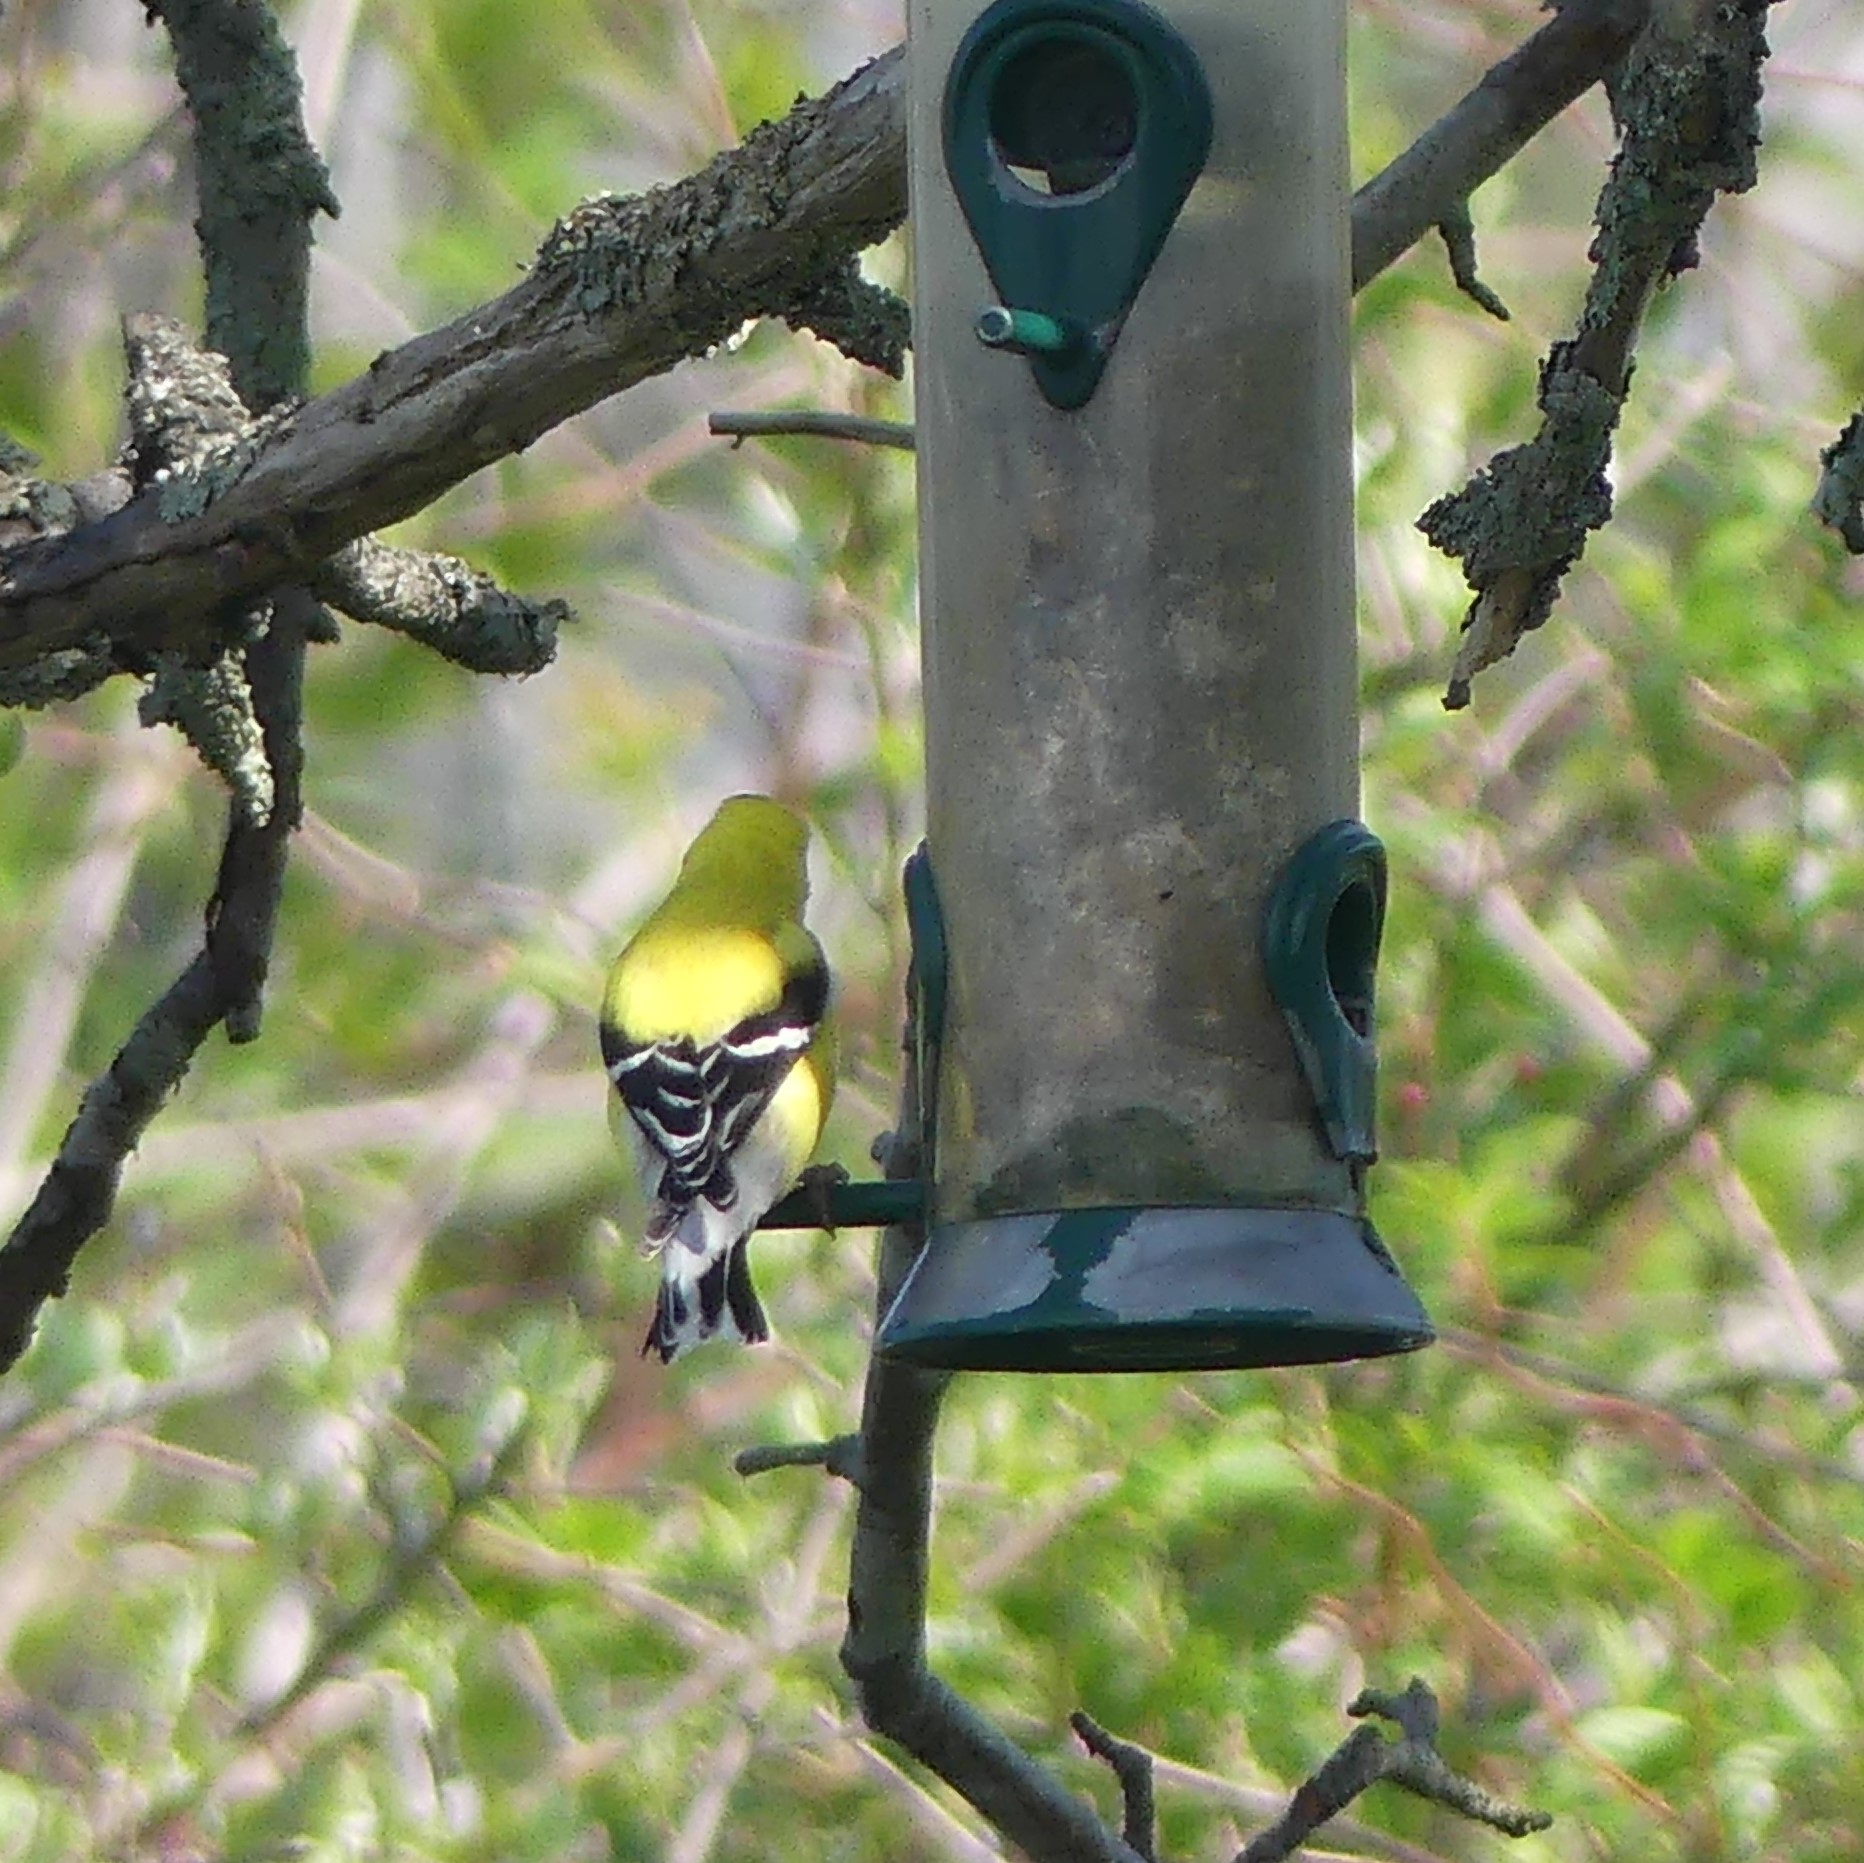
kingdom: Animalia
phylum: Chordata
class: Aves
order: Passeriformes
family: Fringillidae
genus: Spinus
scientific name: Spinus tristis
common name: American goldfinch
